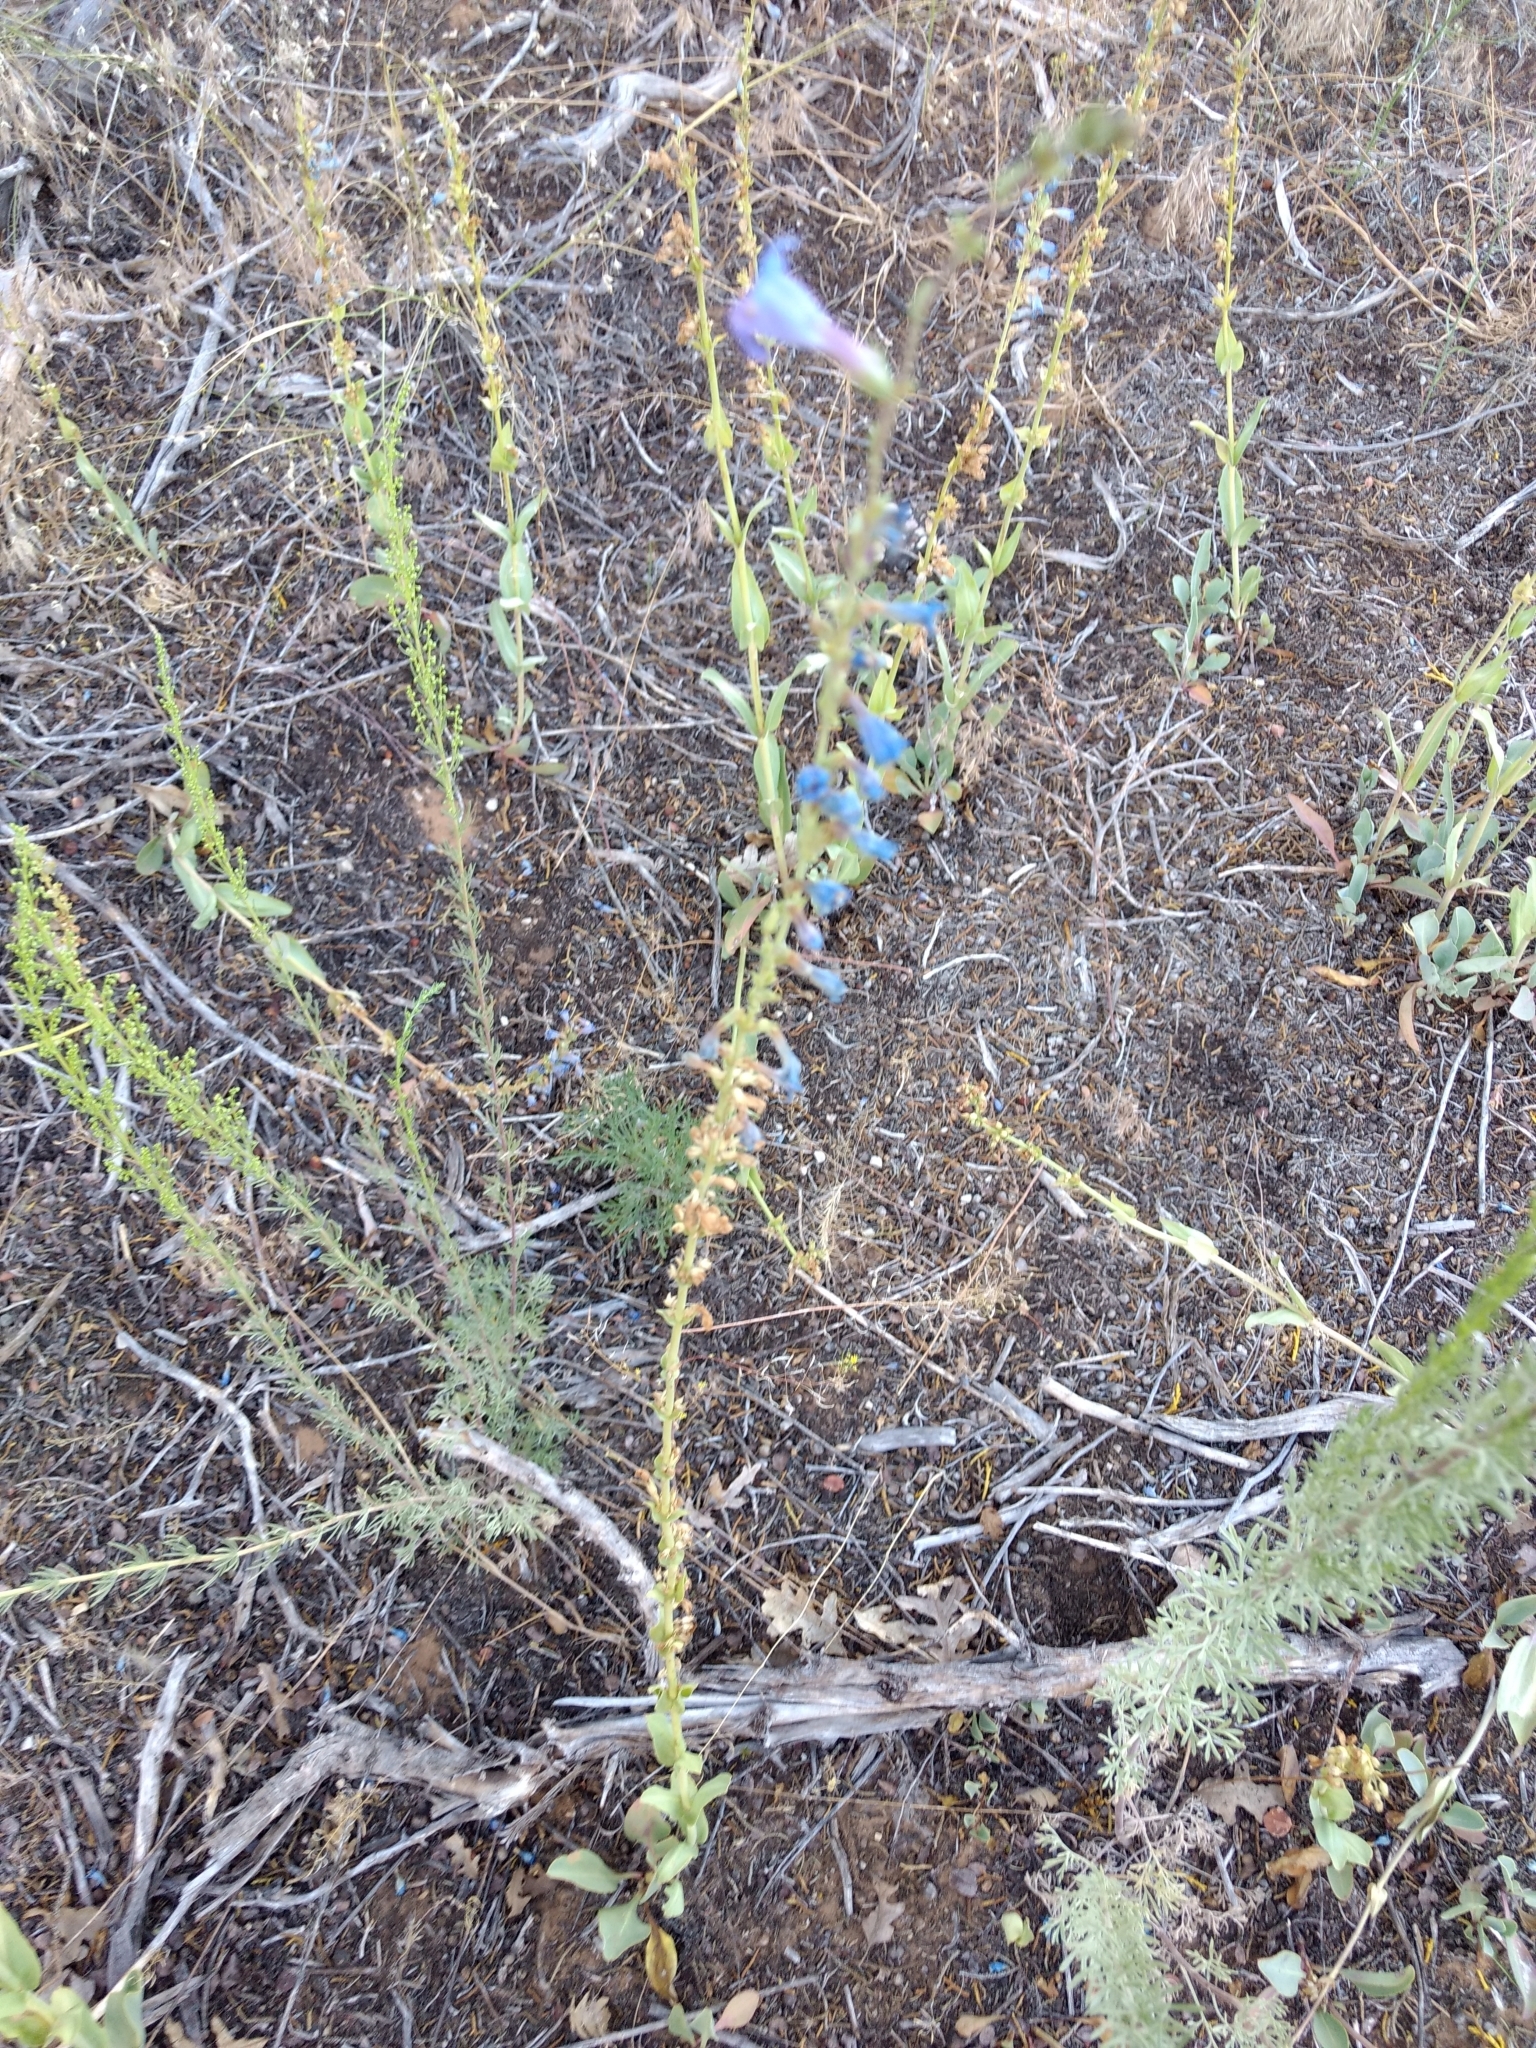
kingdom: Plantae
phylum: Tracheophyta
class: Magnoliopsida
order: Lamiales
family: Plantaginaceae
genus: Penstemon
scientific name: Penstemon pachyphyllus
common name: Thick-leaf penstemon
